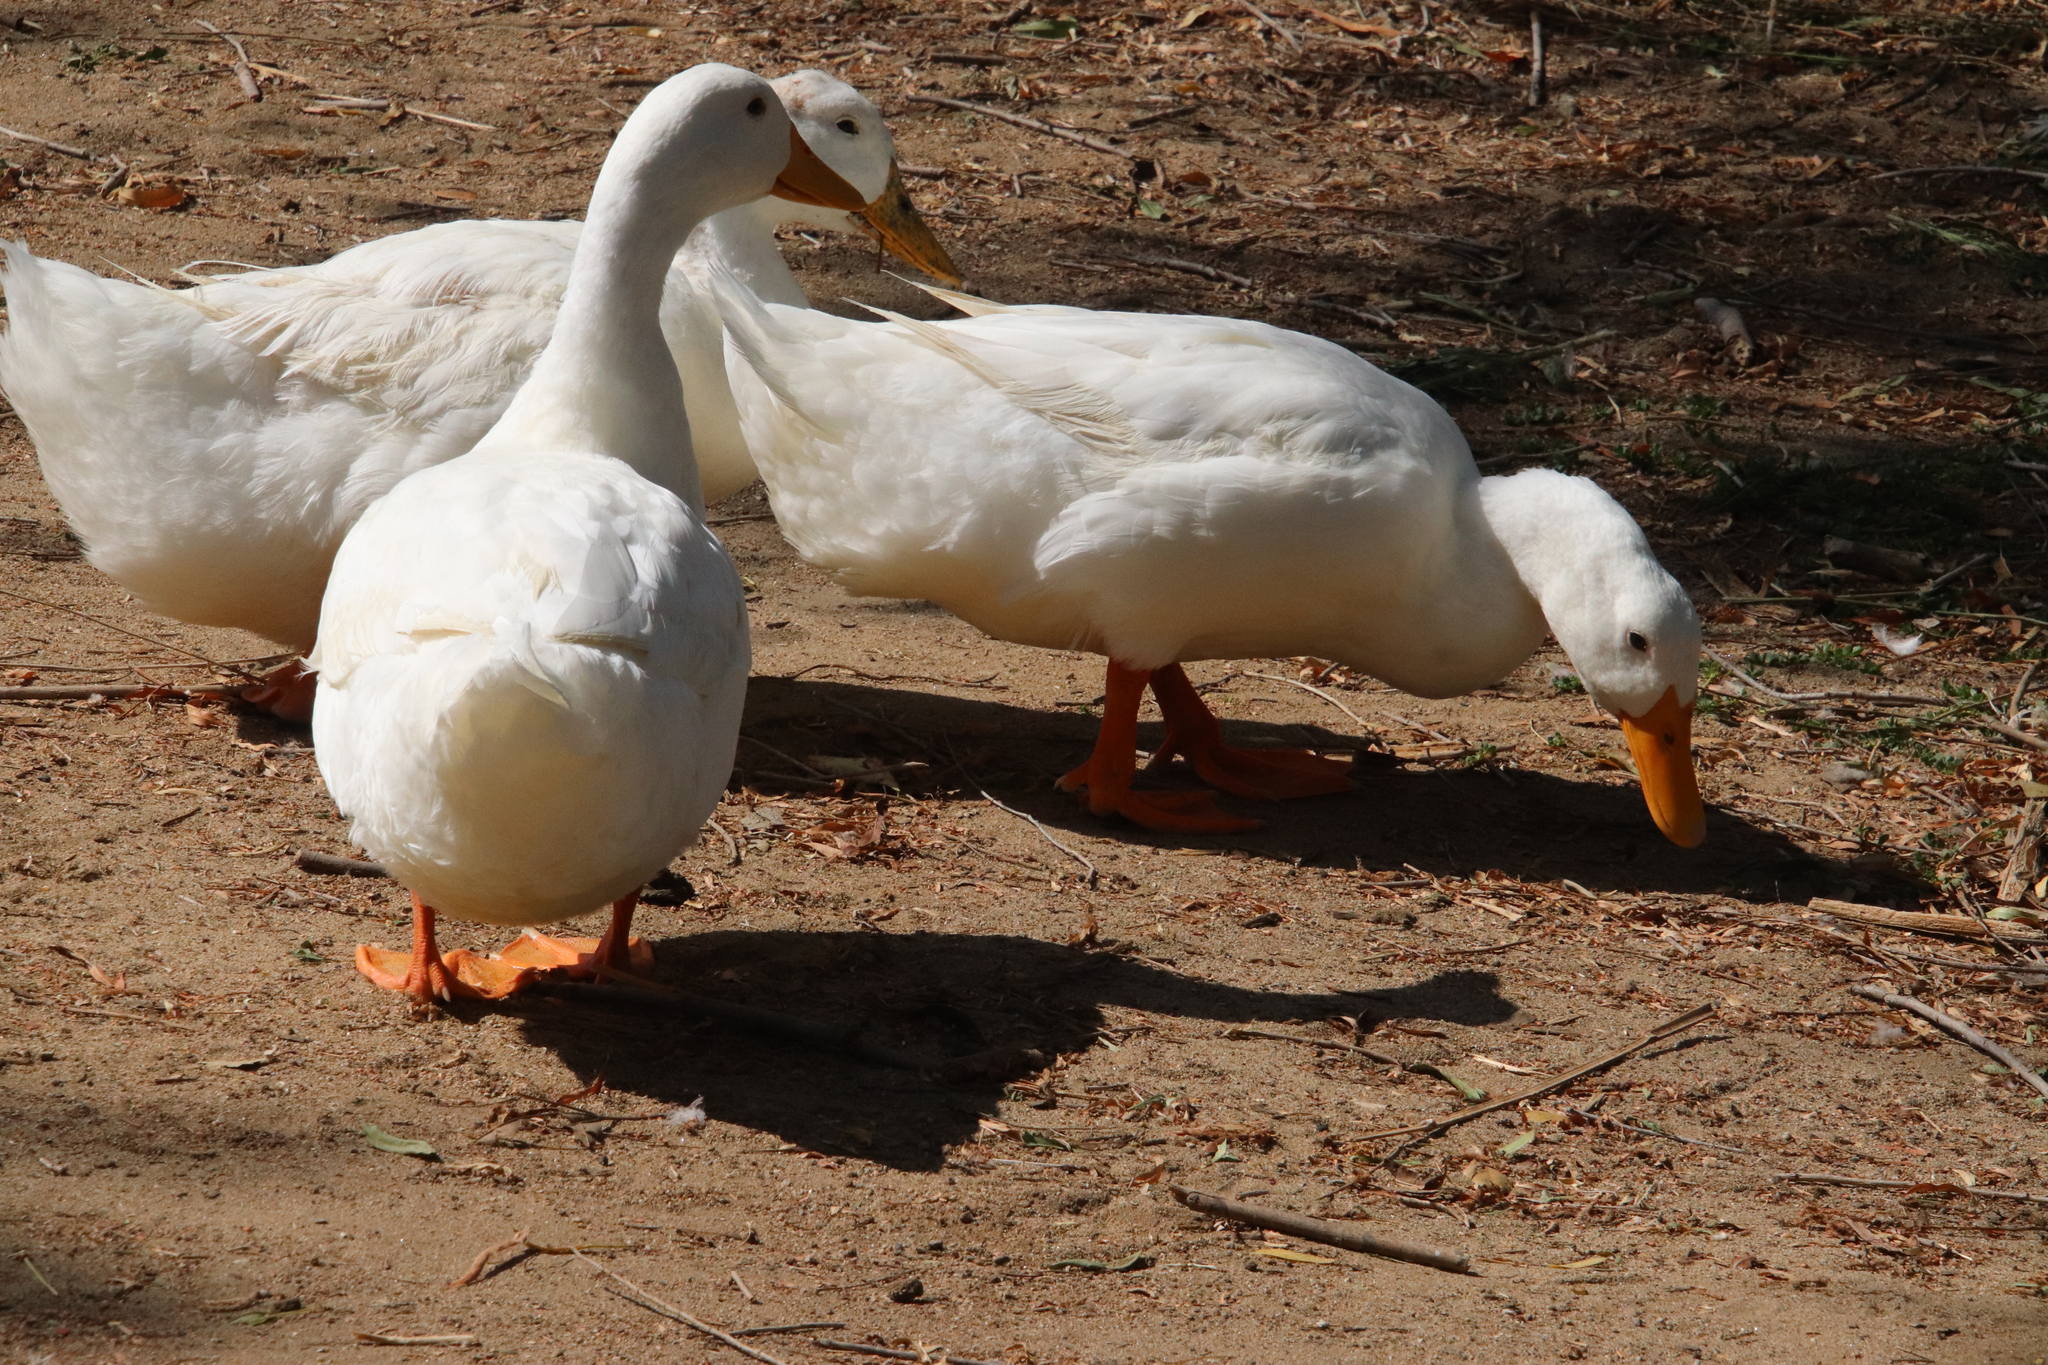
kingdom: Animalia
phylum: Chordata
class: Aves
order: Anseriformes
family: Anatidae
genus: Anas
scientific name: Anas platyrhynchos
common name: Mallard
